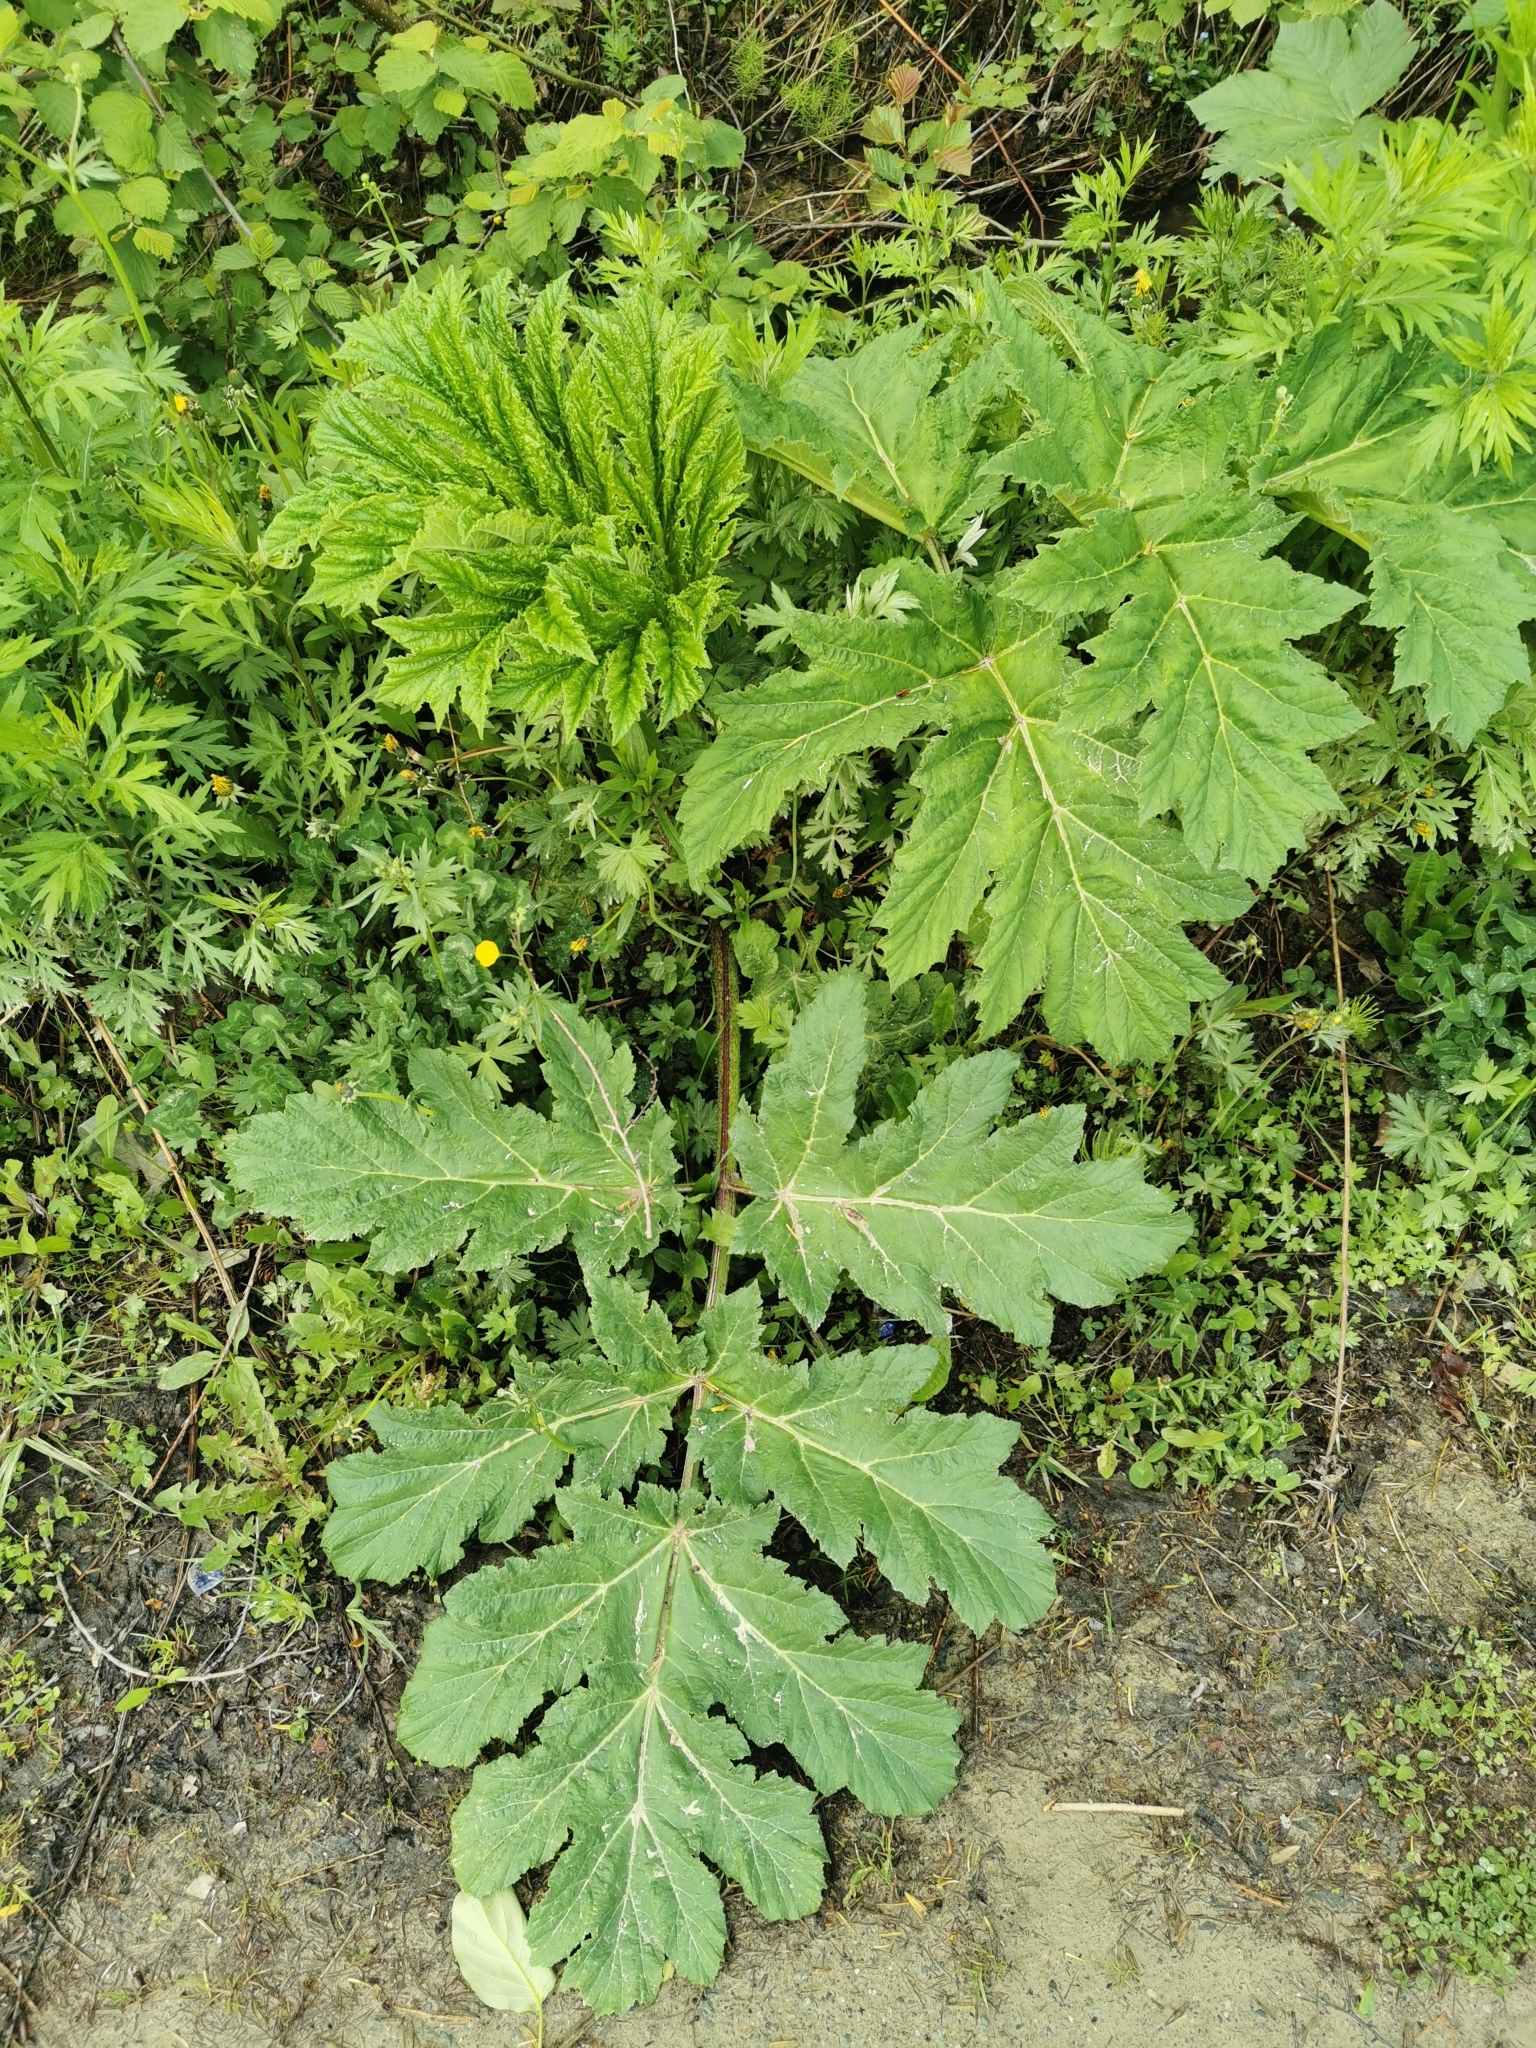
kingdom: Plantae
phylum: Tracheophyta
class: Magnoliopsida
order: Apiales
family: Apiaceae
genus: Heracleum
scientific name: Heracleum maximum
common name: American cow parsnip
